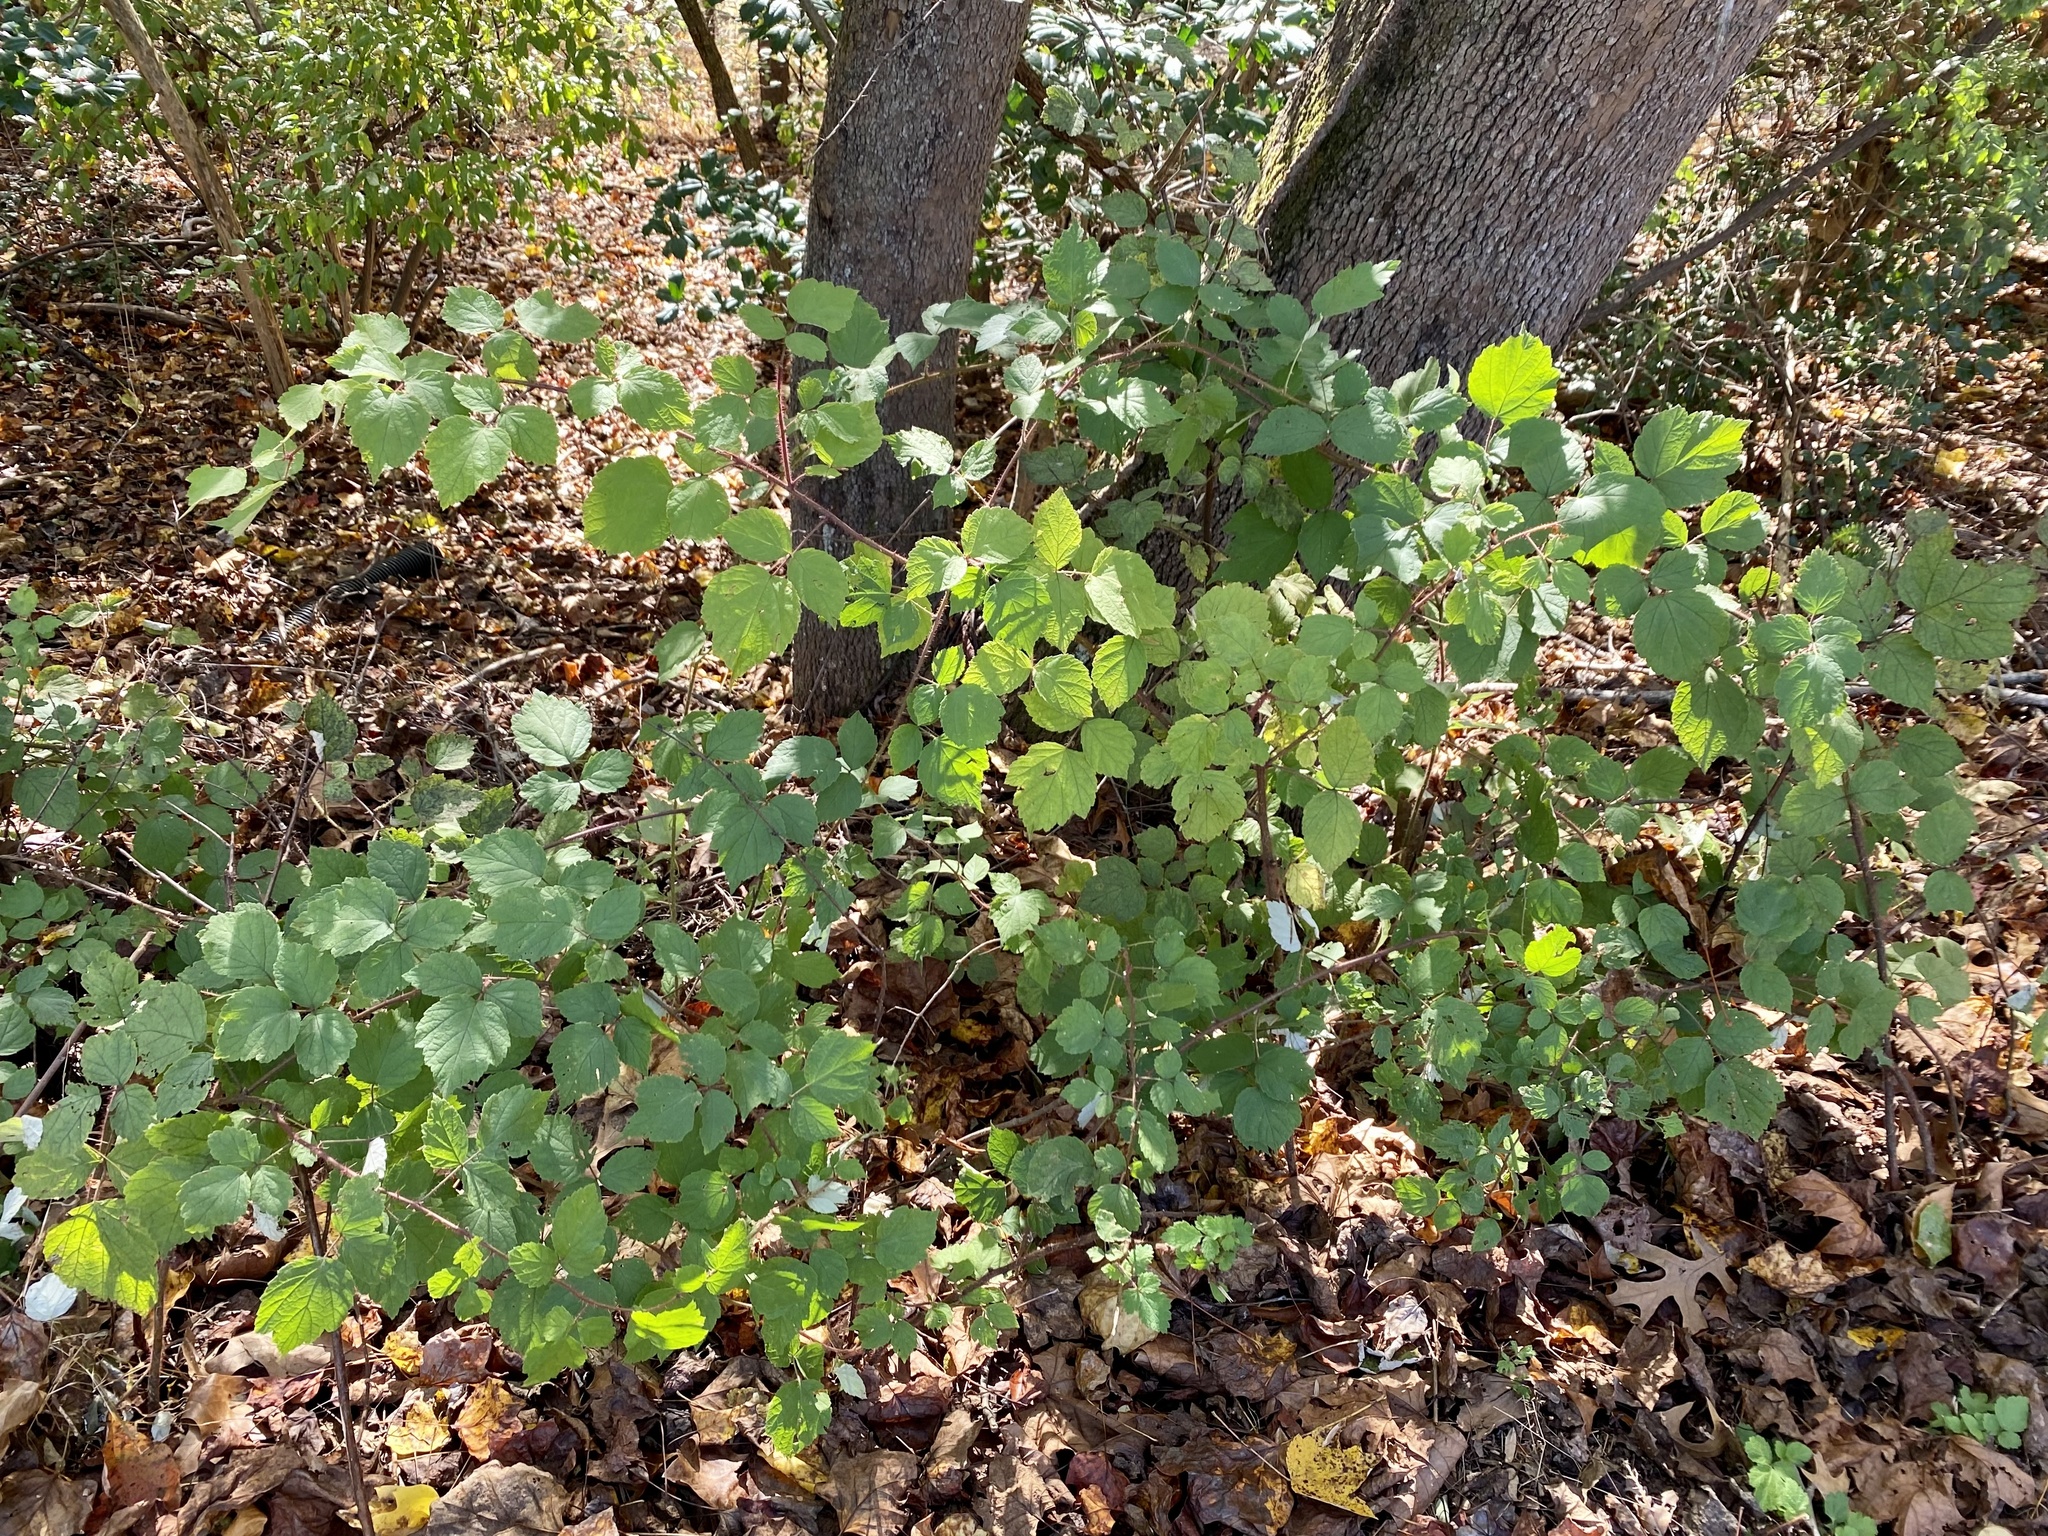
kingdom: Plantae
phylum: Tracheophyta
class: Magnoliopsida
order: Rosales
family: Rosaceae
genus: Rubus
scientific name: Rubus phoenicolasius
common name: Japanese wineberry
